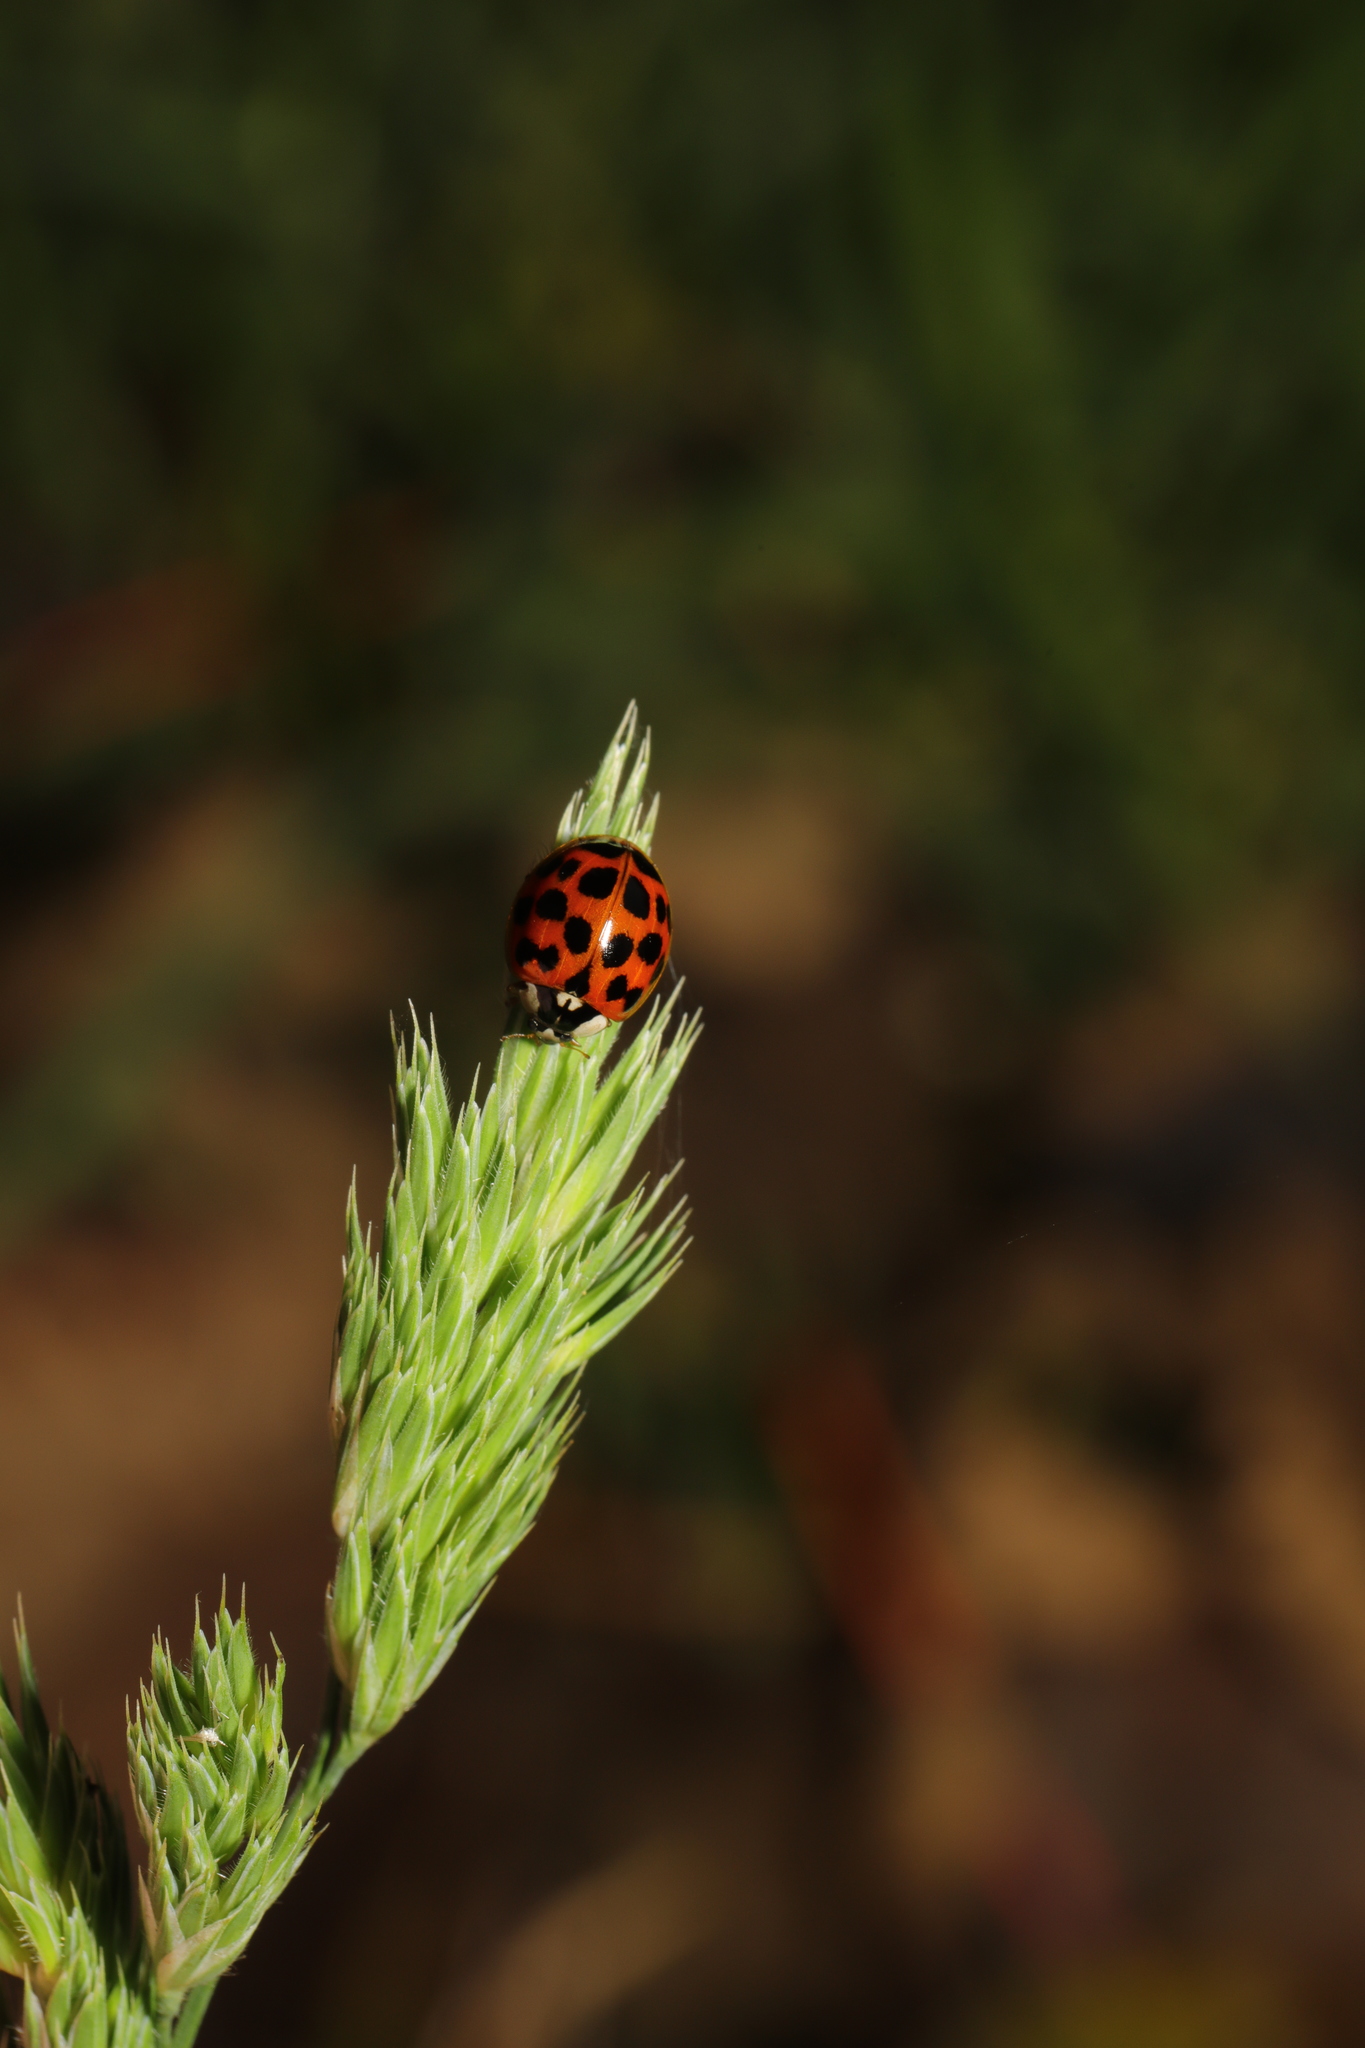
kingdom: Animalia
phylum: Arthropoda
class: Insecta
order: Coleoptera
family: Coccinellidae
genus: Harmonia
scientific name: Harmonia axyridis
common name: Harlequin ladybird
